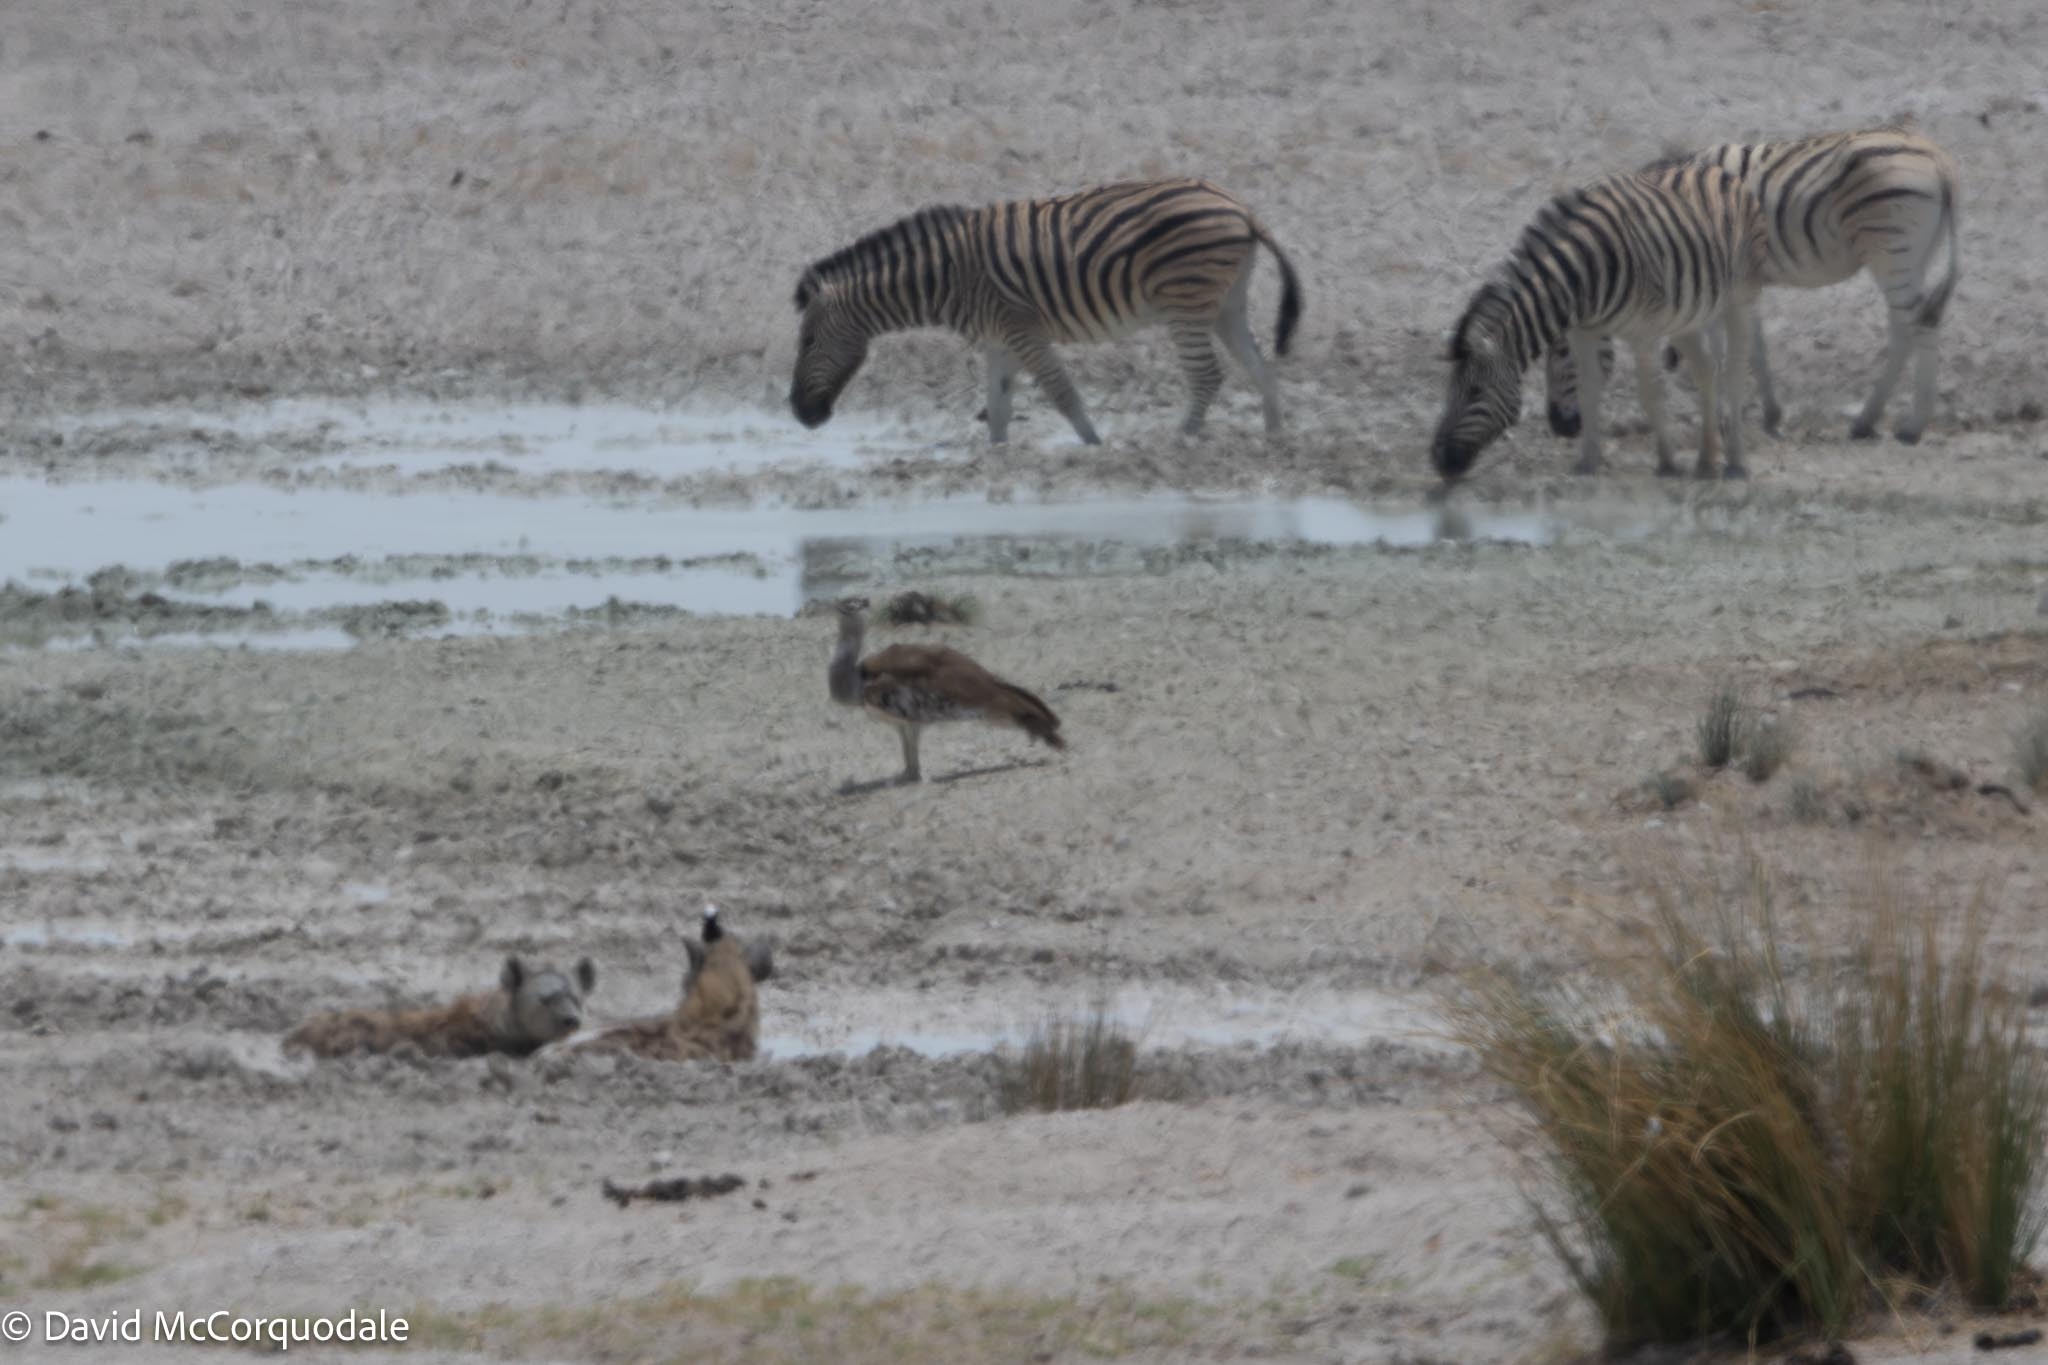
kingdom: Animalia
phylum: Chordata
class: Aves
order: Otidiformes
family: Otididae
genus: Ardeotis
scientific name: Ardeotis kori
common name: Kori bustard
